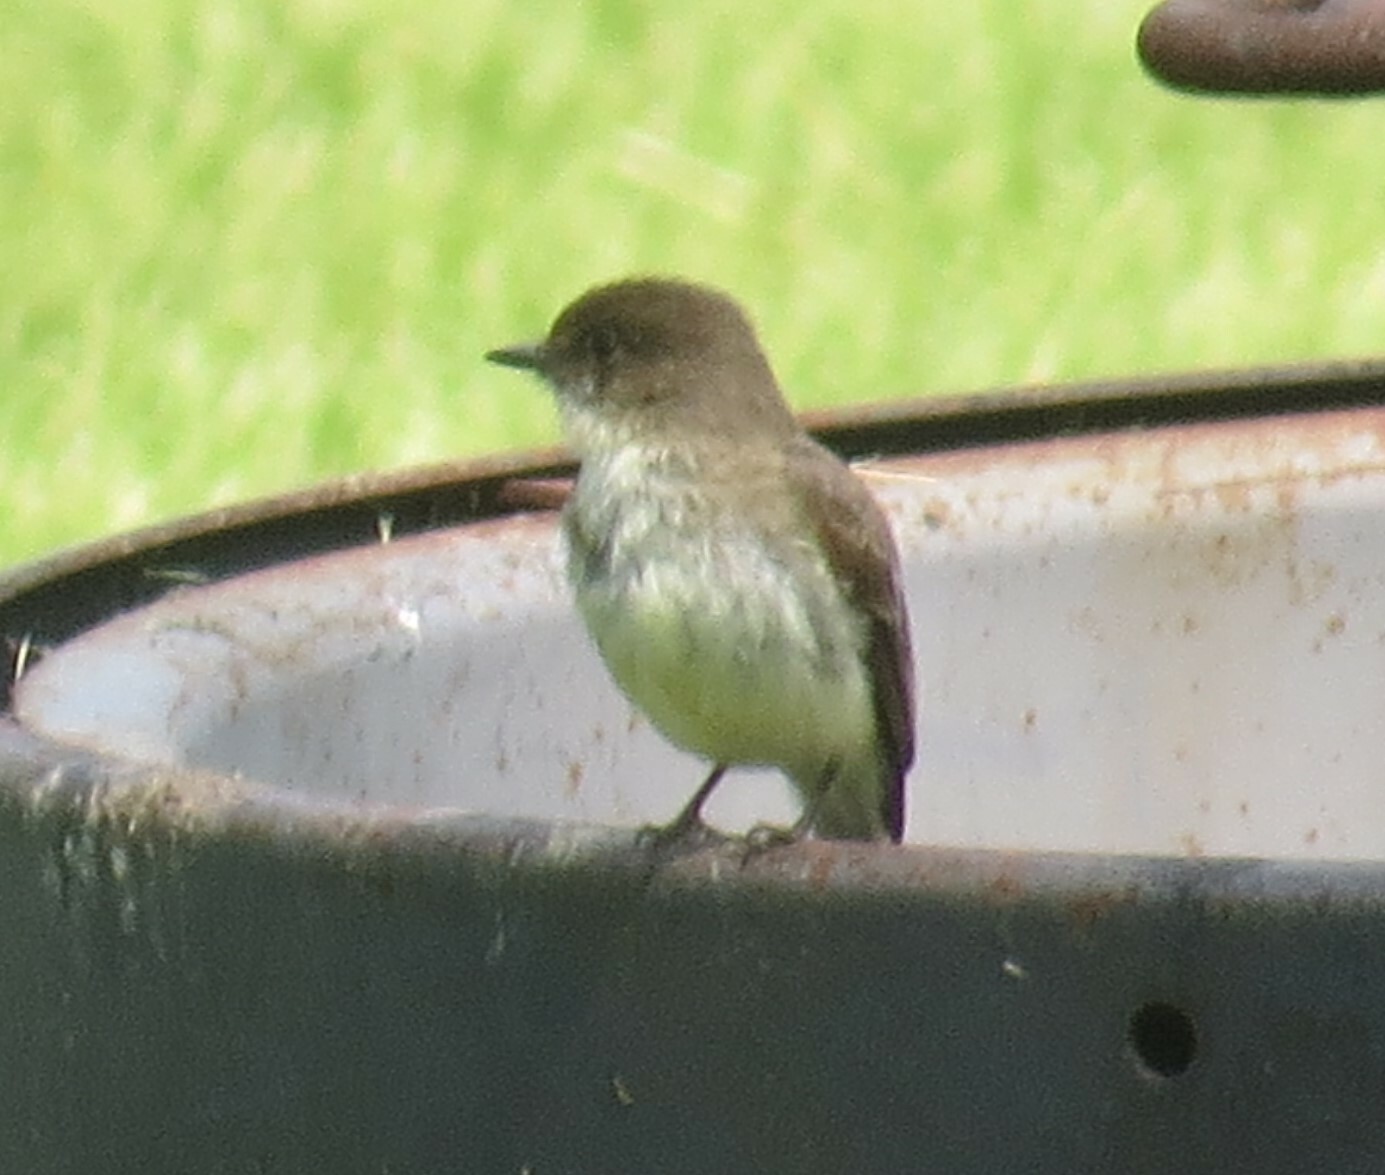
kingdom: Animalia
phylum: Chordata
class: Aves
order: Passeriformes
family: Tyrannidae
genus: Sayornis
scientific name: Sayornis phoebe
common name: Eastern phoebe
